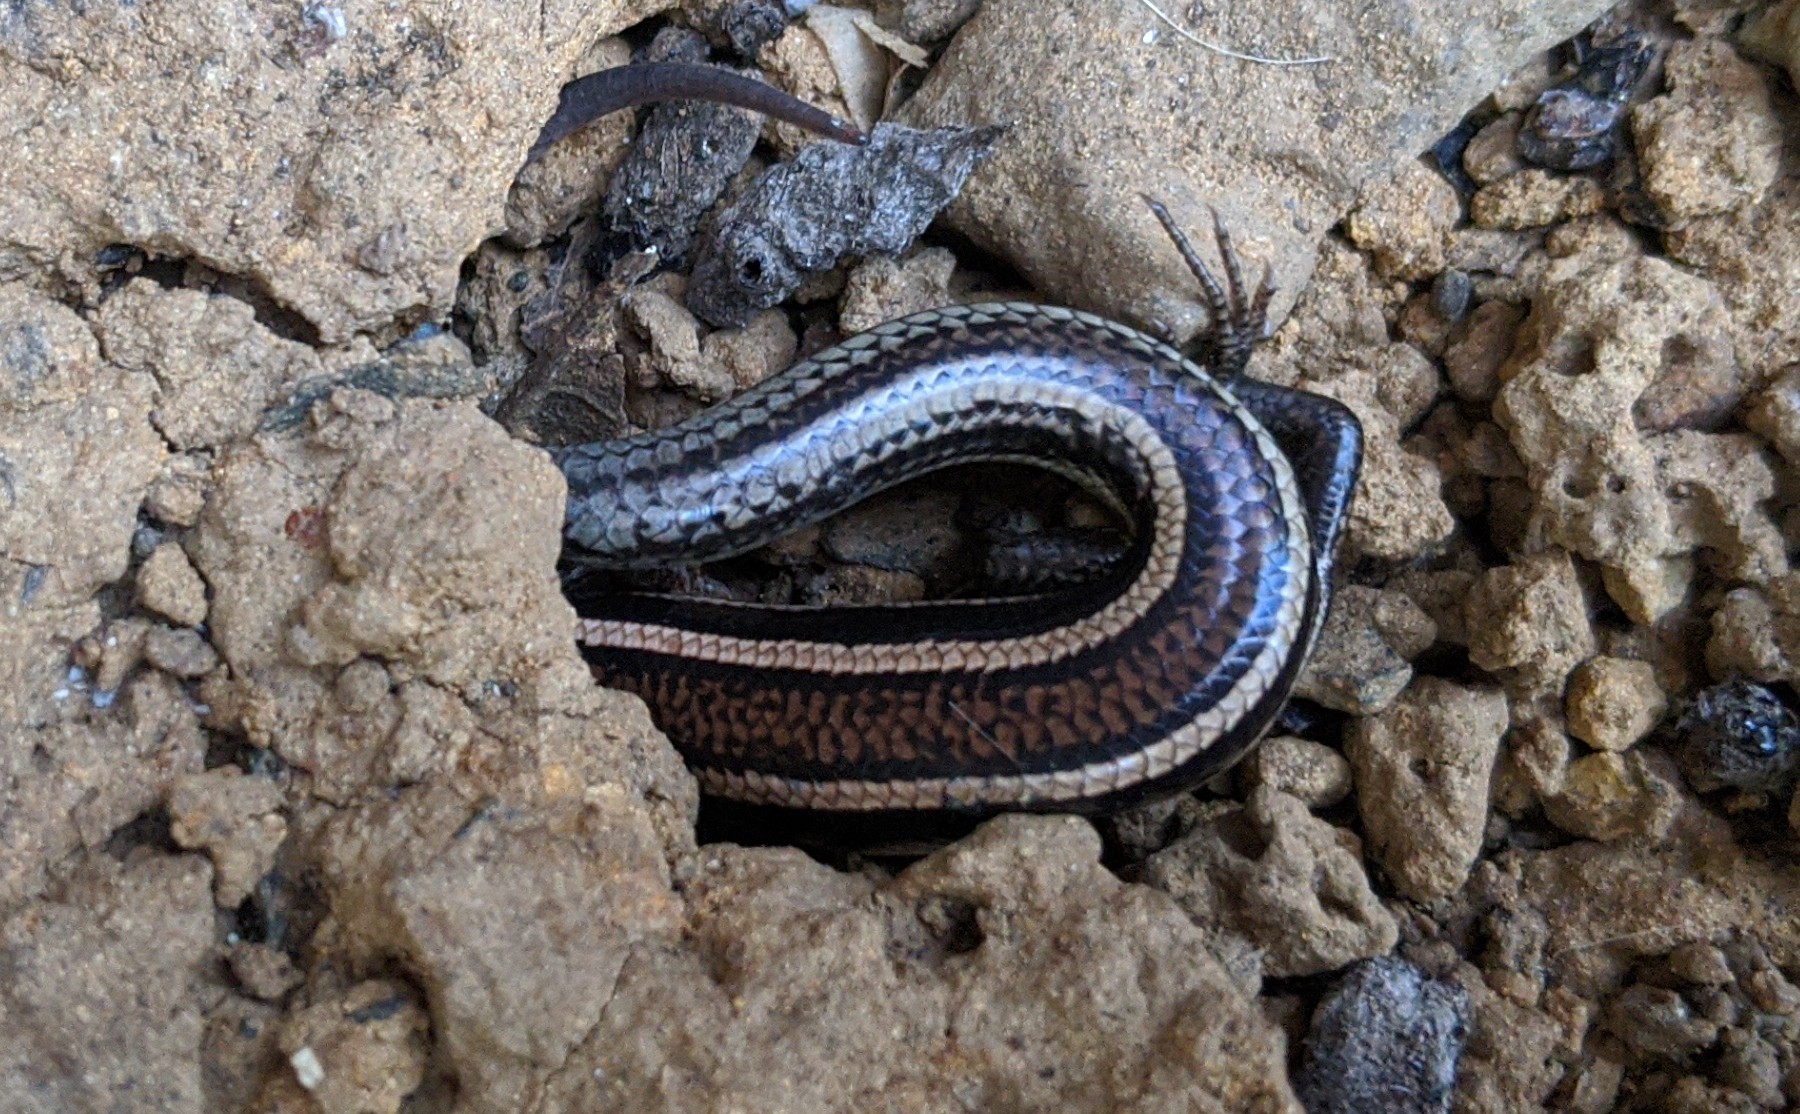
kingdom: Animalia
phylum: Chordata
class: Squamata
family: Scincidae
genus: Plestiodon
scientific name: Plestiodon skiltonianus
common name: Coronado island skink [interparietalis]
